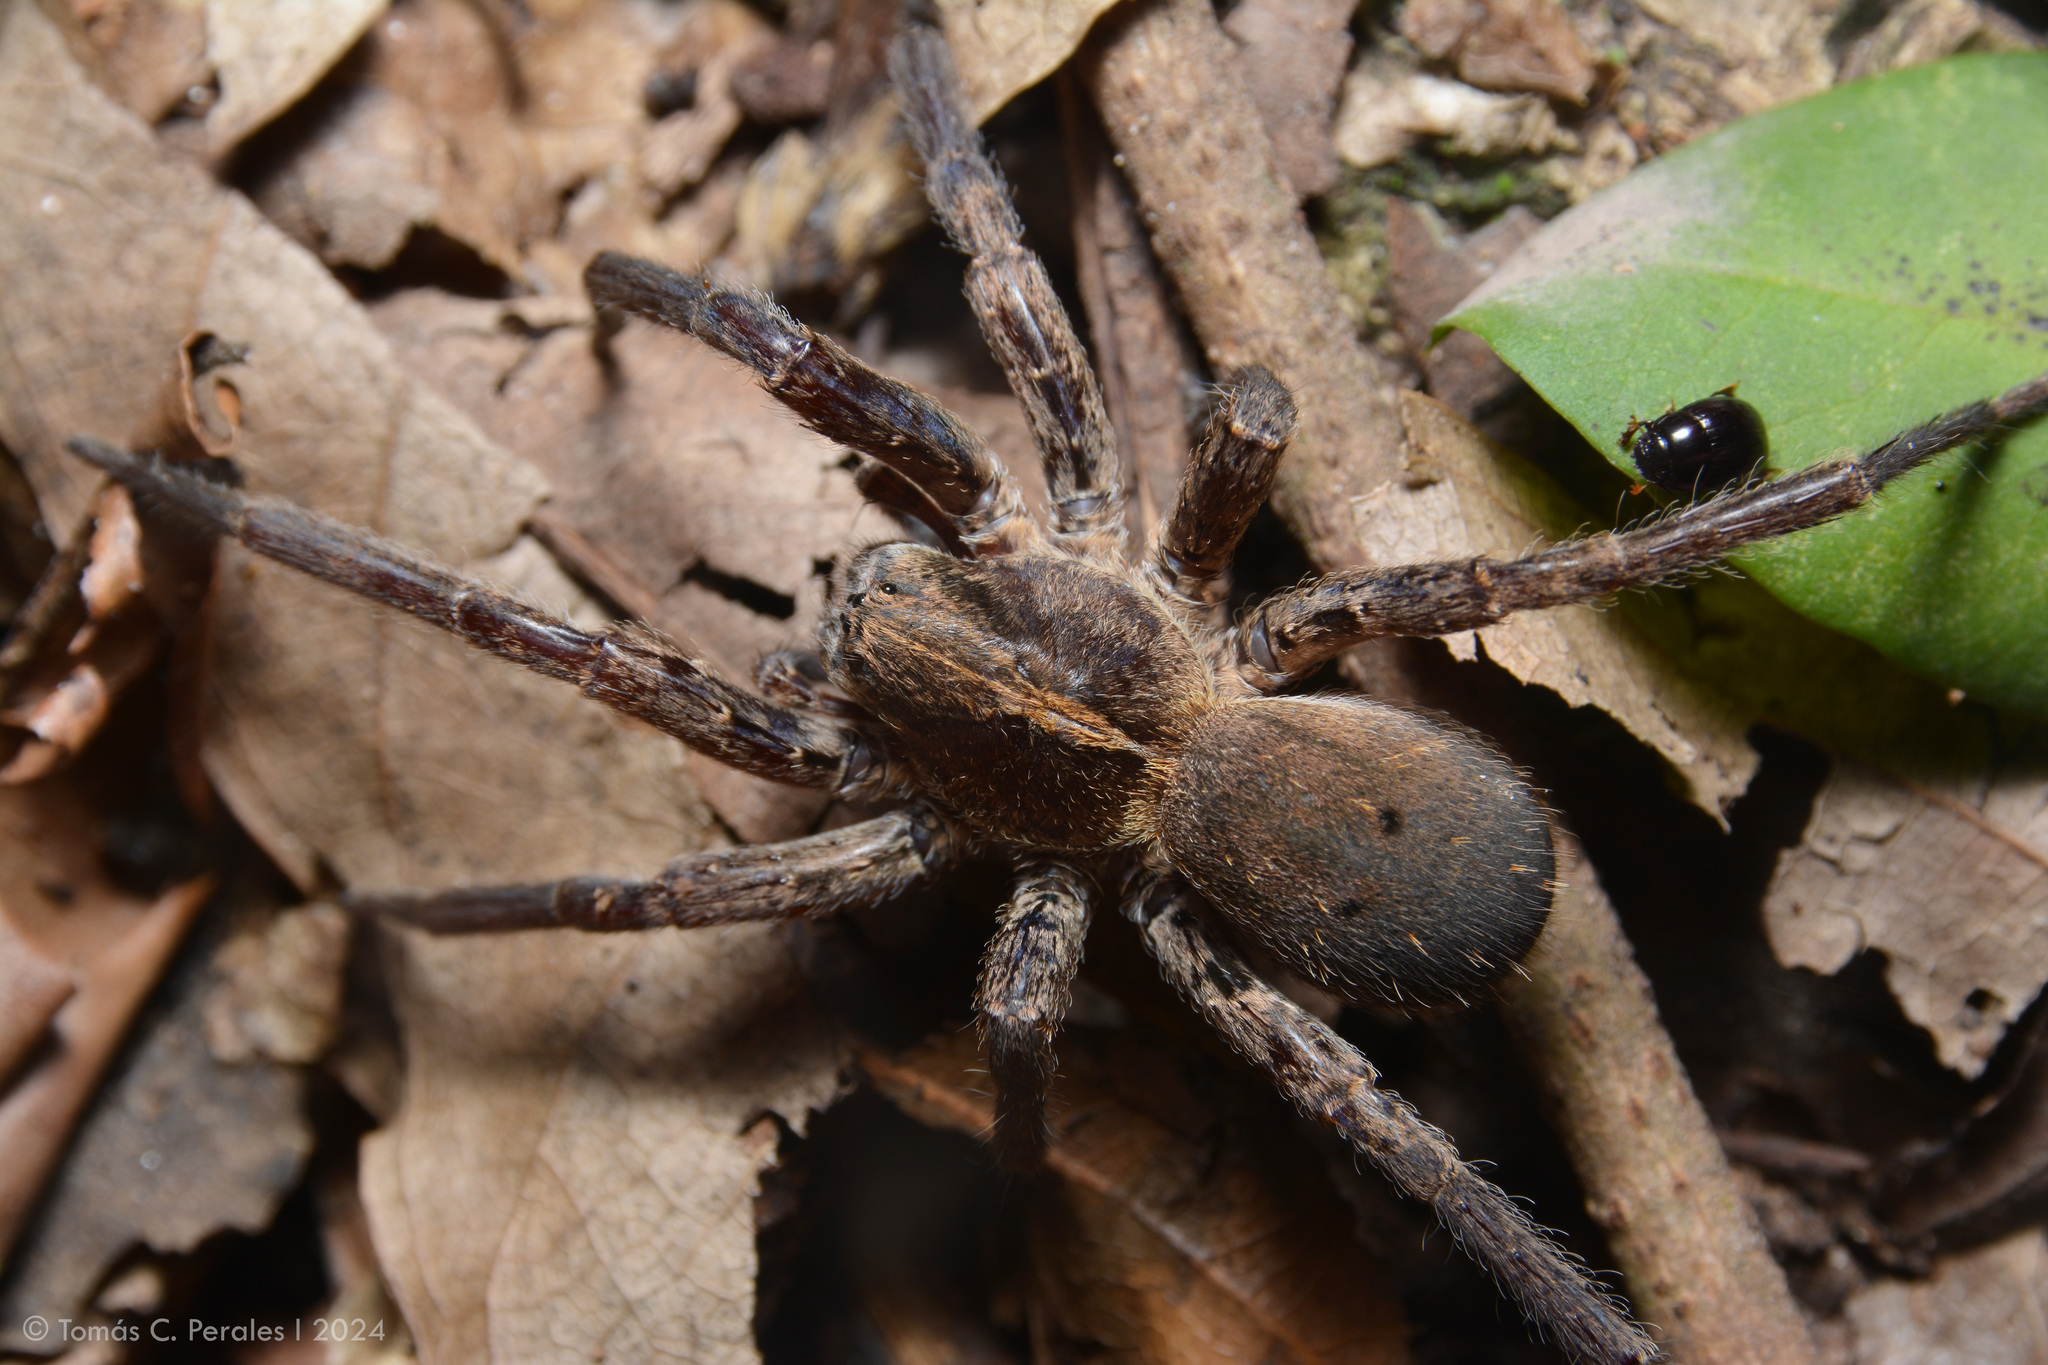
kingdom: Animalia
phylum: Arthropoda
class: Arachnida
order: Araneae
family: Ctenidae
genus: Parabatinga
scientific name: Parabatinga brevipes
